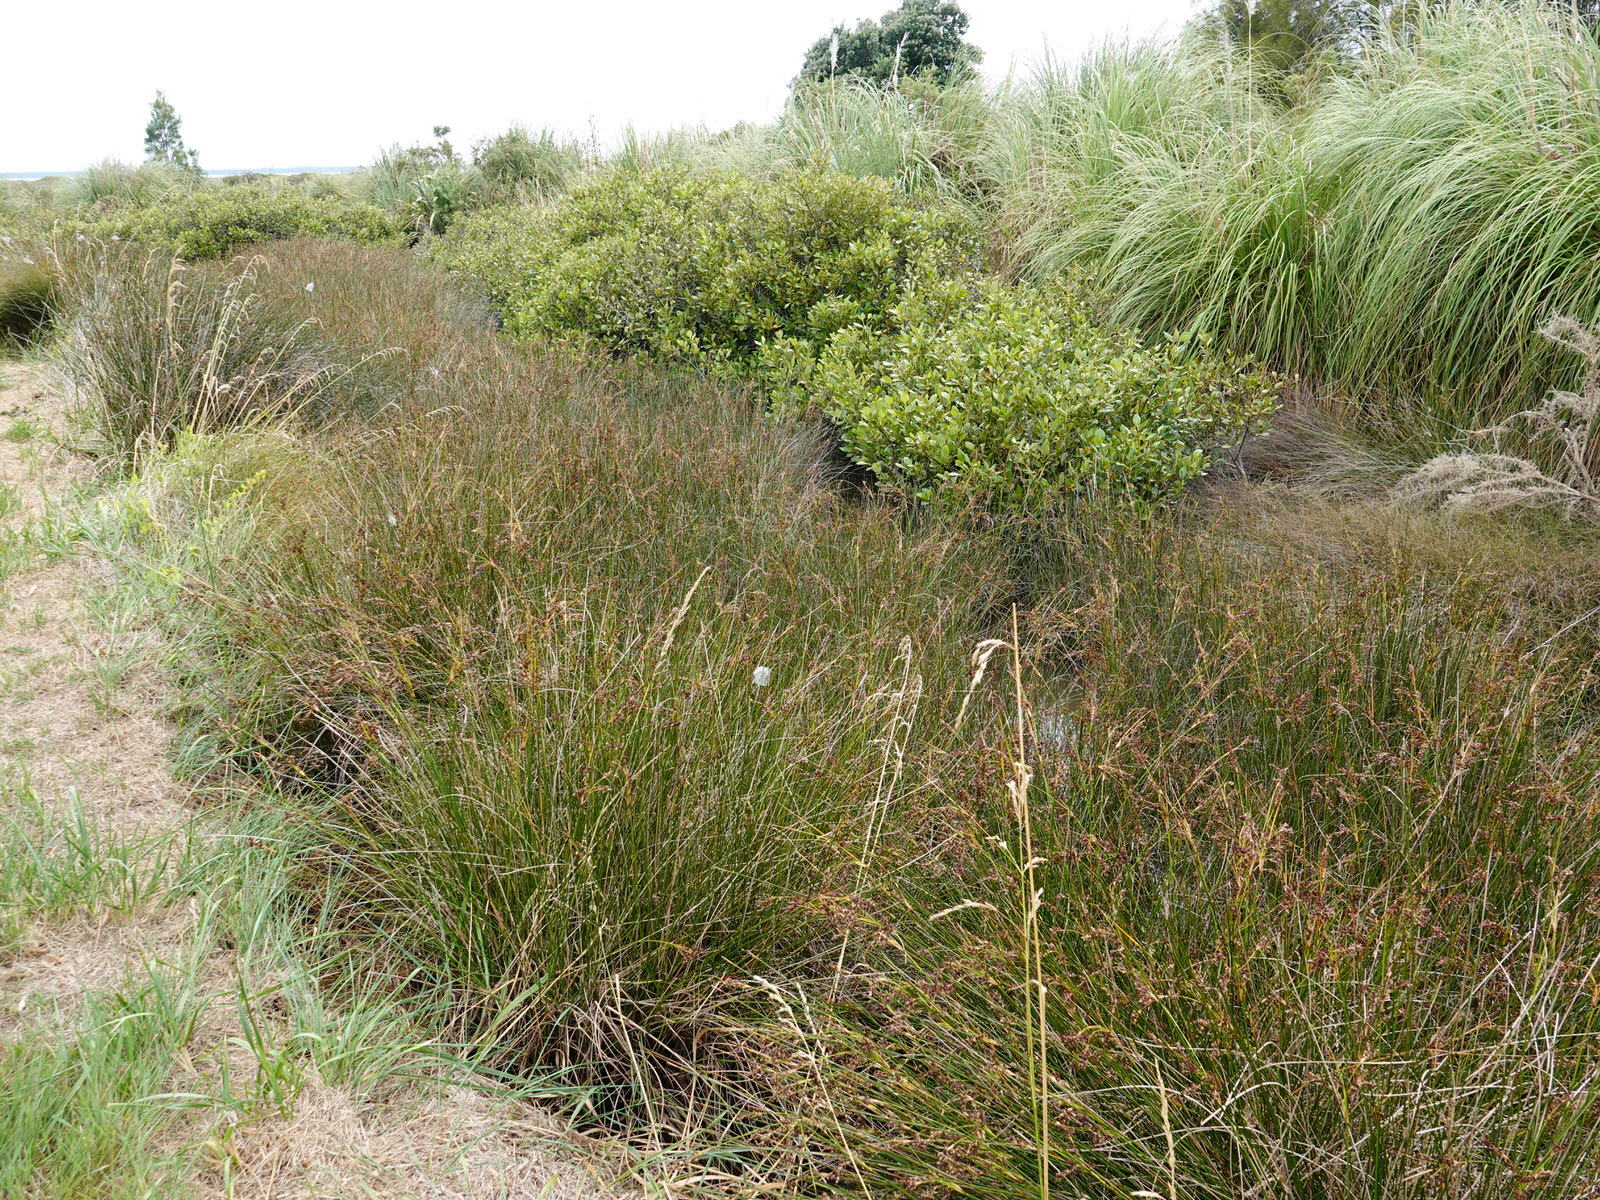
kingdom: Plantae
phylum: Tracheophyta
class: Liliopsida
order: Poales
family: Juncaceae
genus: Juncus
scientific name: Juncus kraussii
